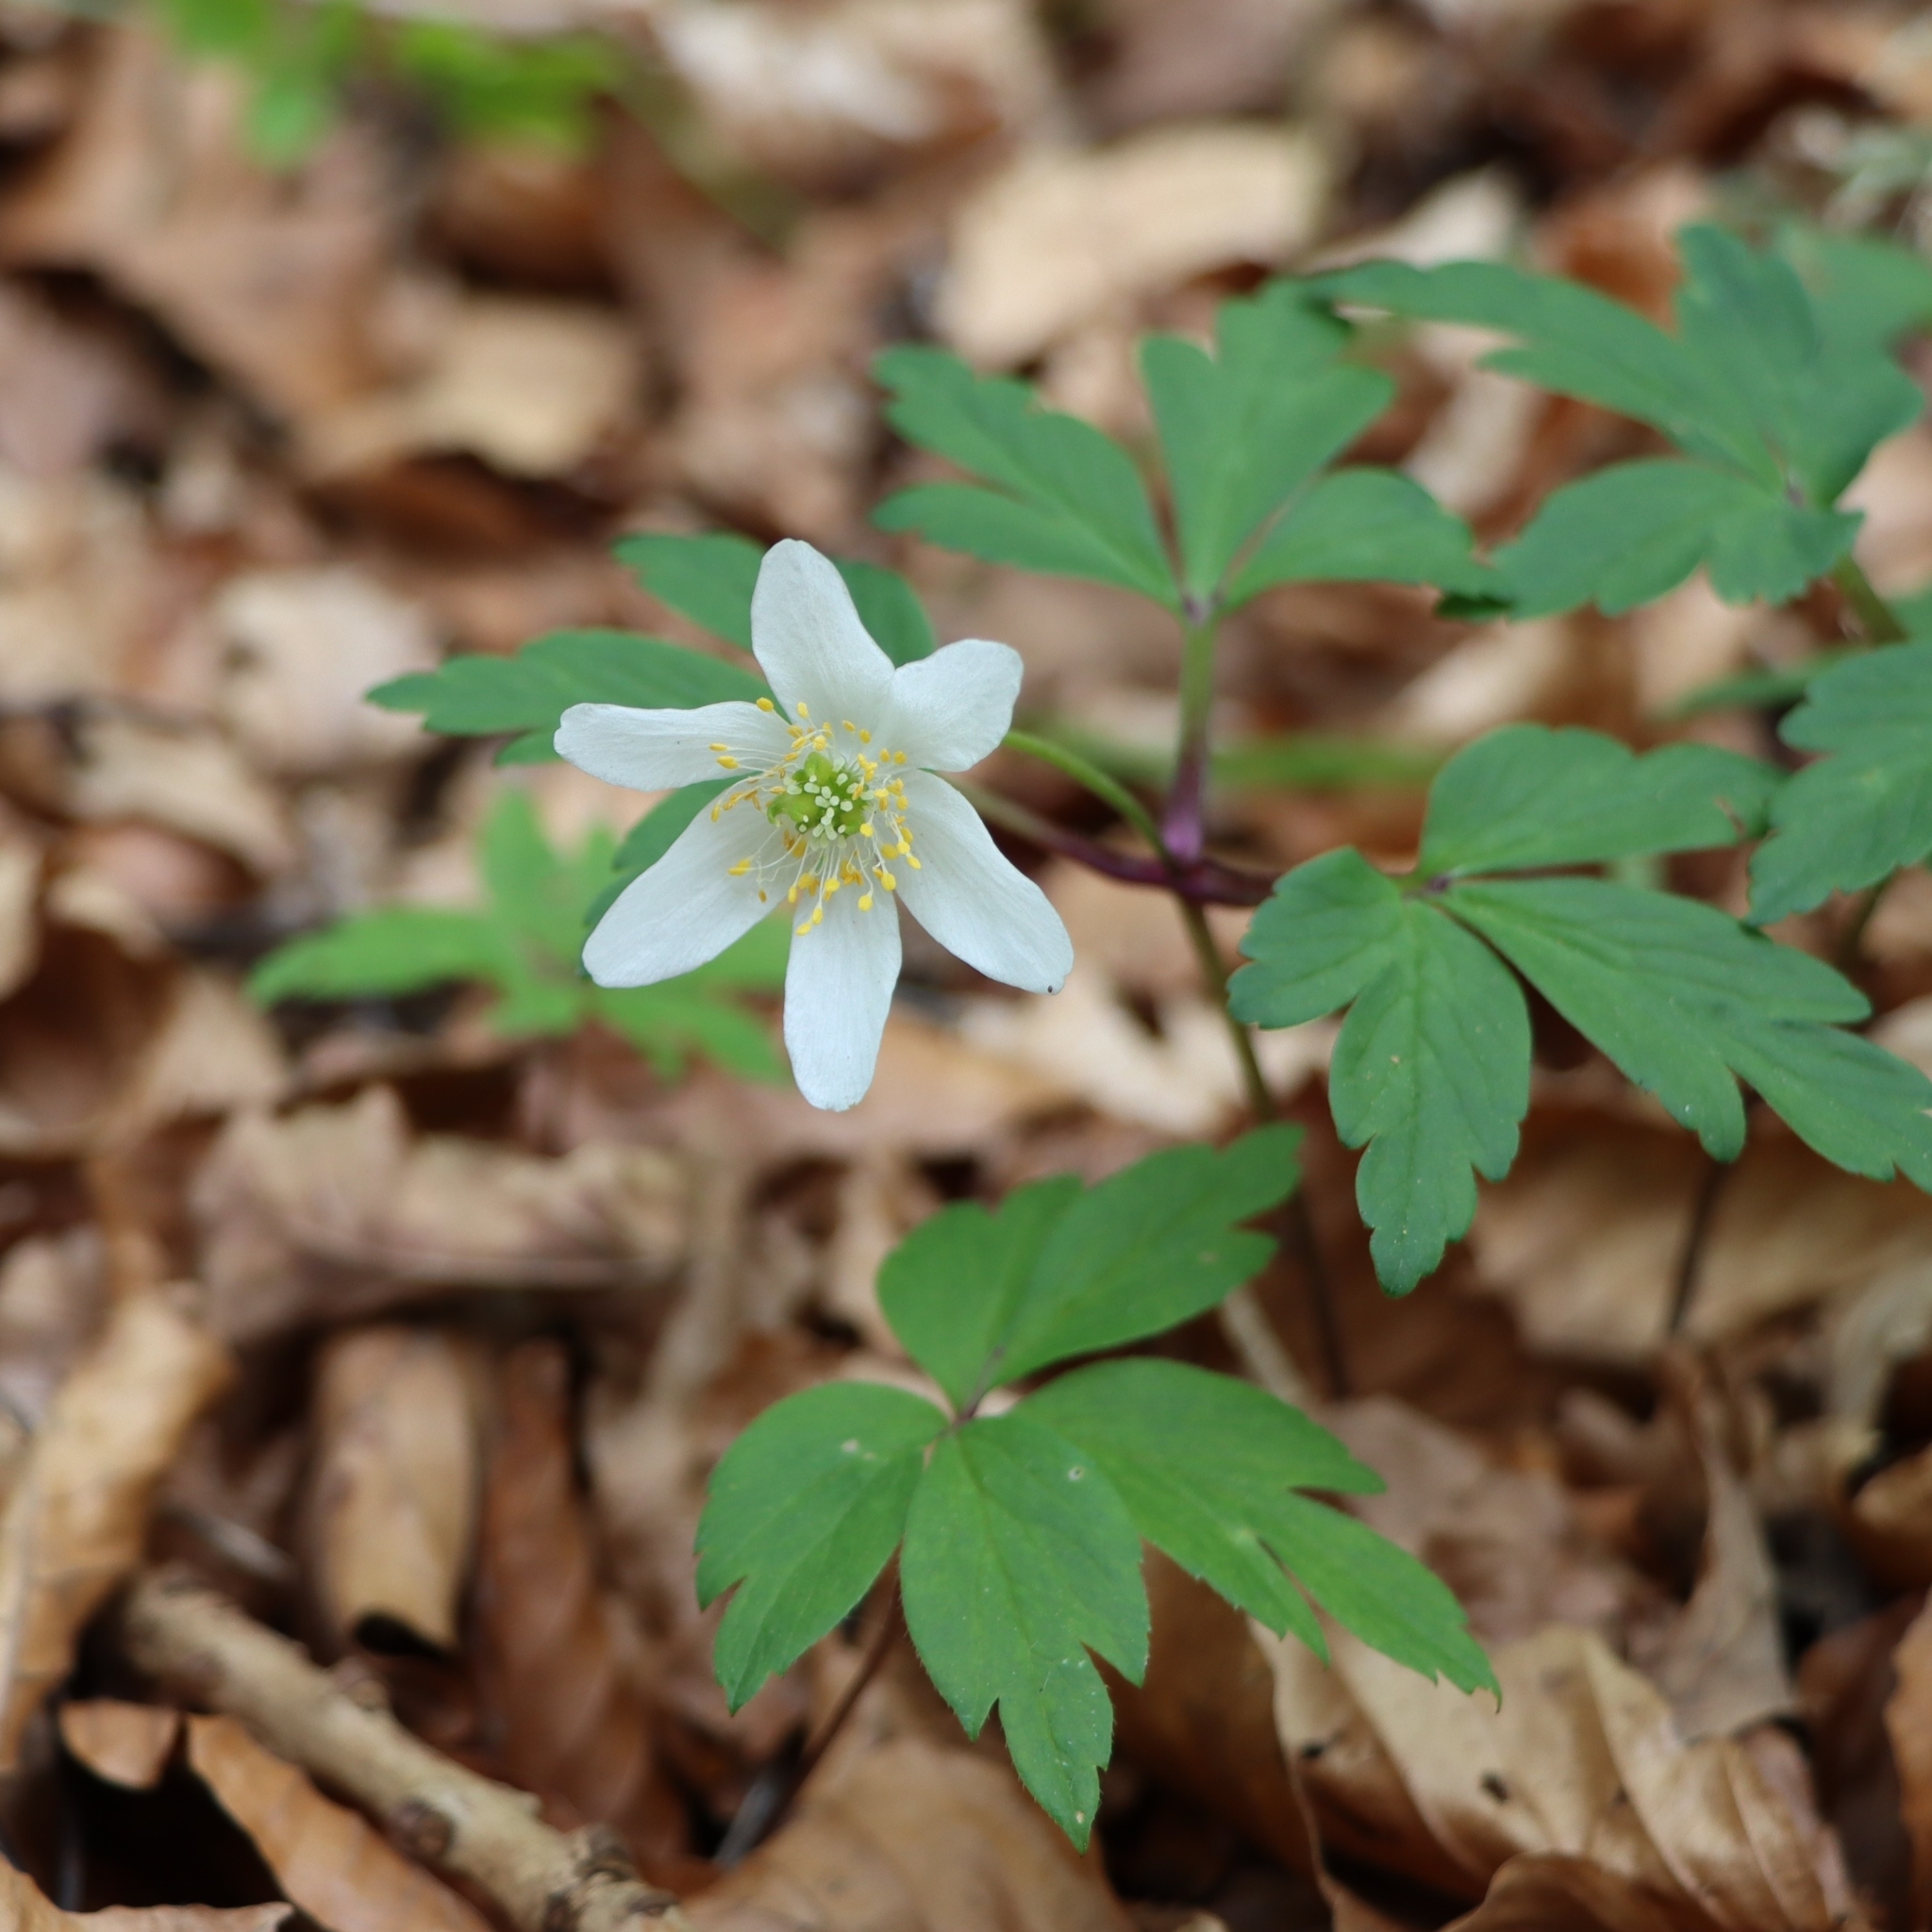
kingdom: Plantae
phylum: Tracheophyta
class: Magnoliopsida
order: Ranunculales
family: Ranunculaceae
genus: Anemone
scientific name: Anemone nemorosa
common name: Wood anemone
